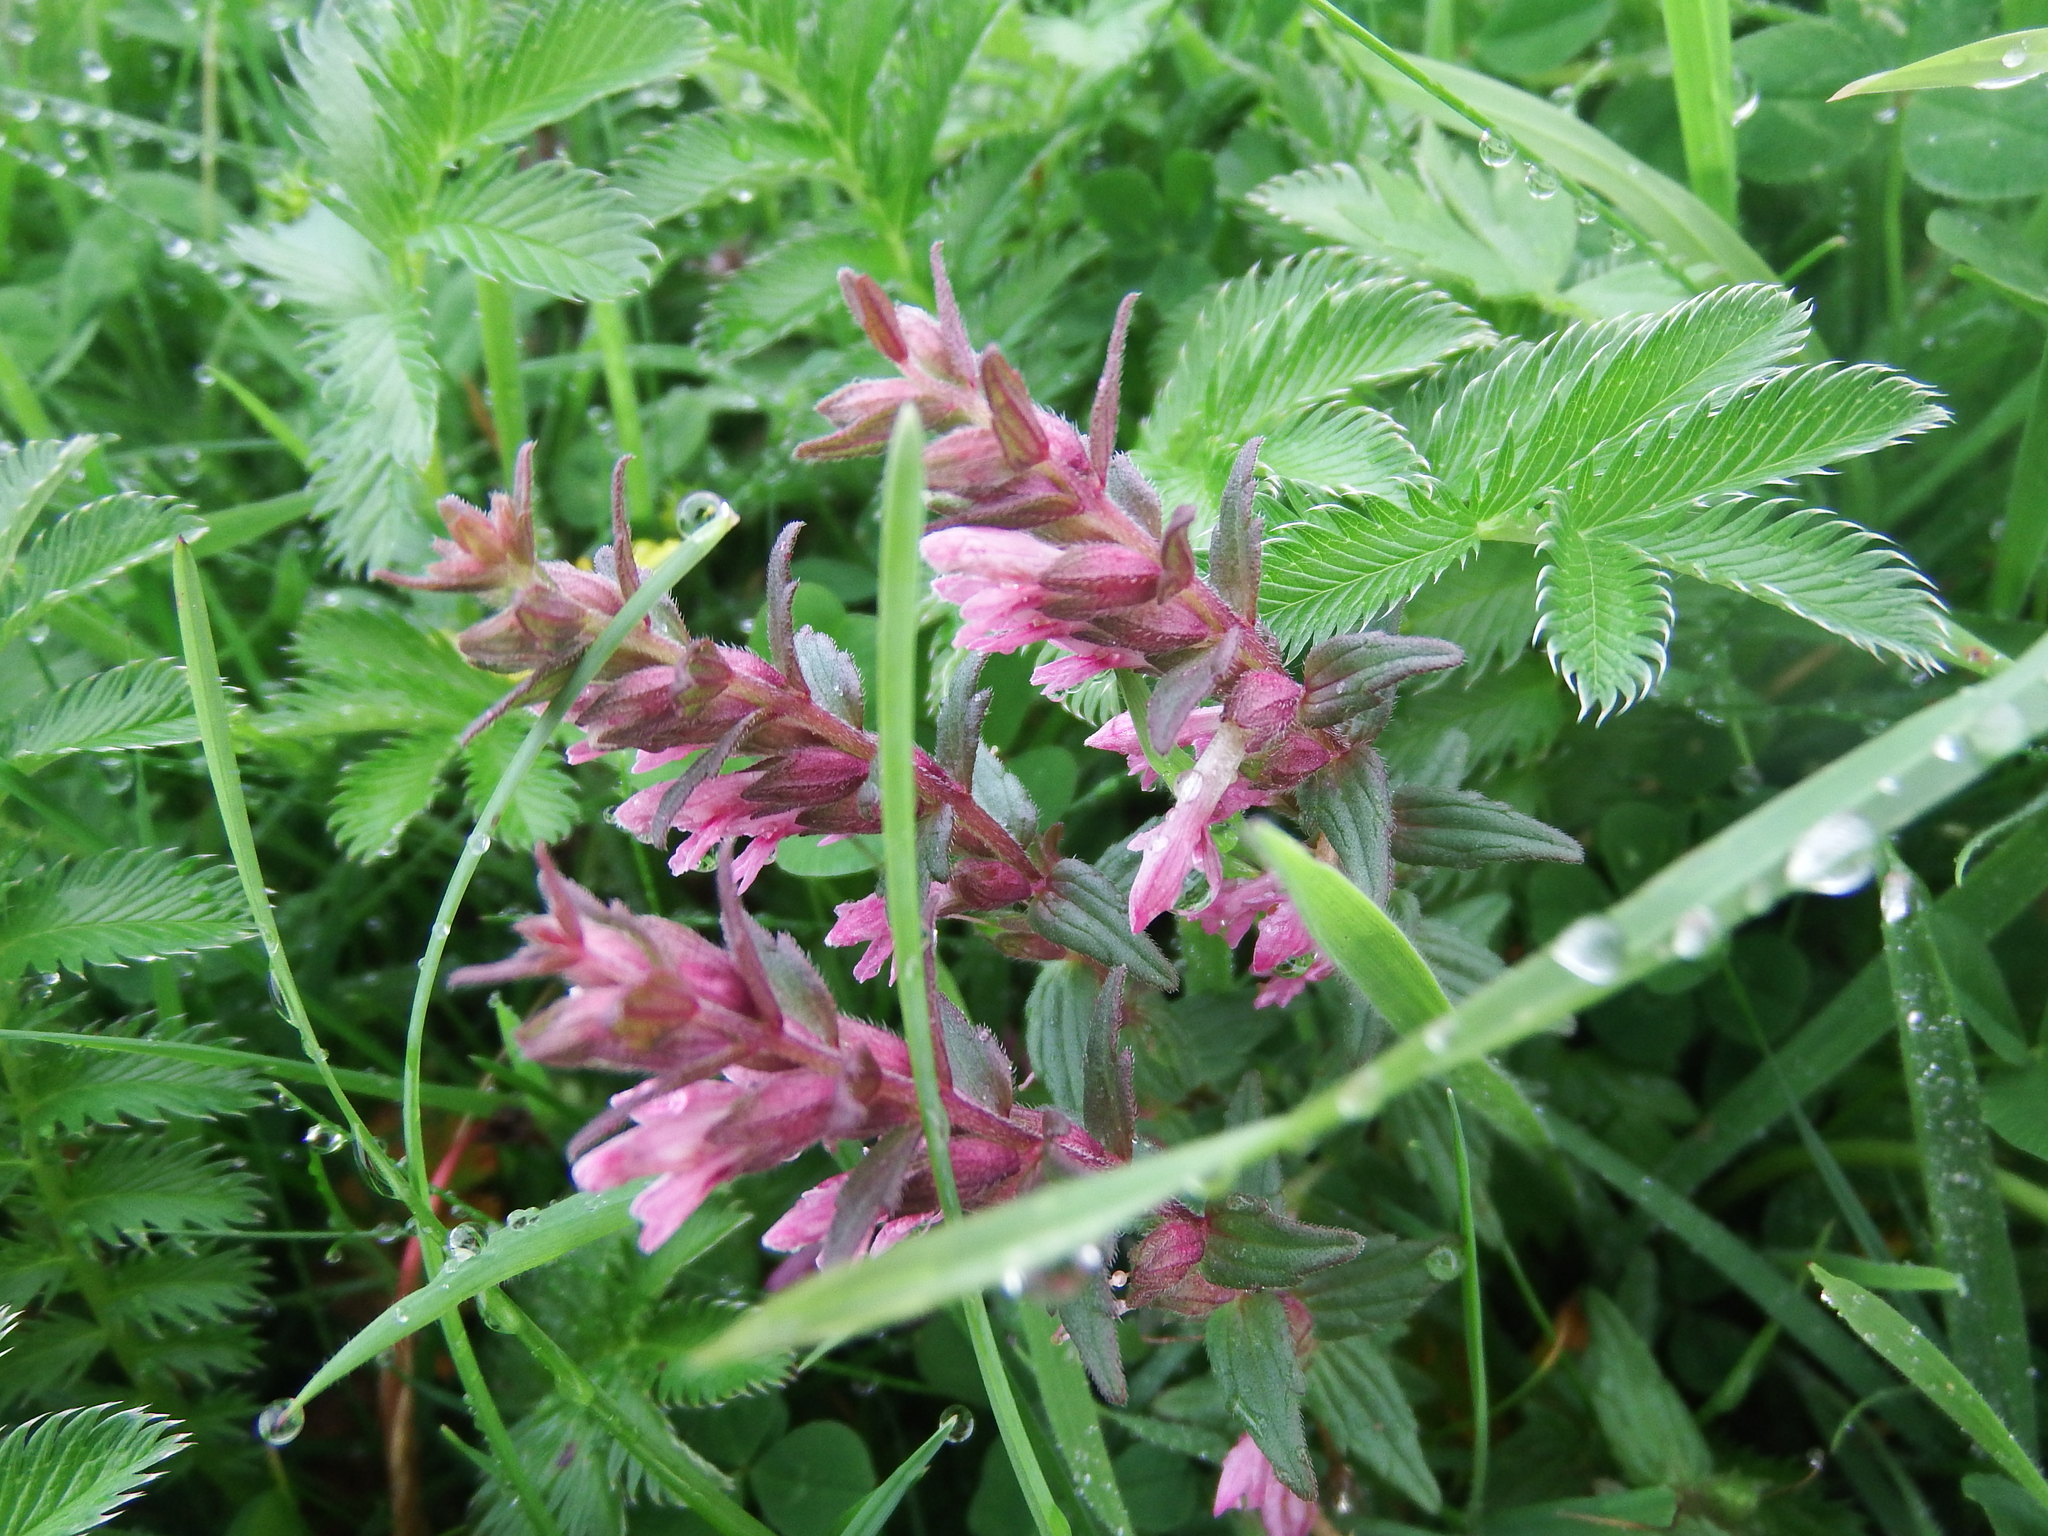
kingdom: Plantae
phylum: Tracheophyta
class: Magnoliopsida
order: Lamiales
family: Orobanchaceae
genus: Odontites
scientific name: Odontites vernus
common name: Red bartsia
